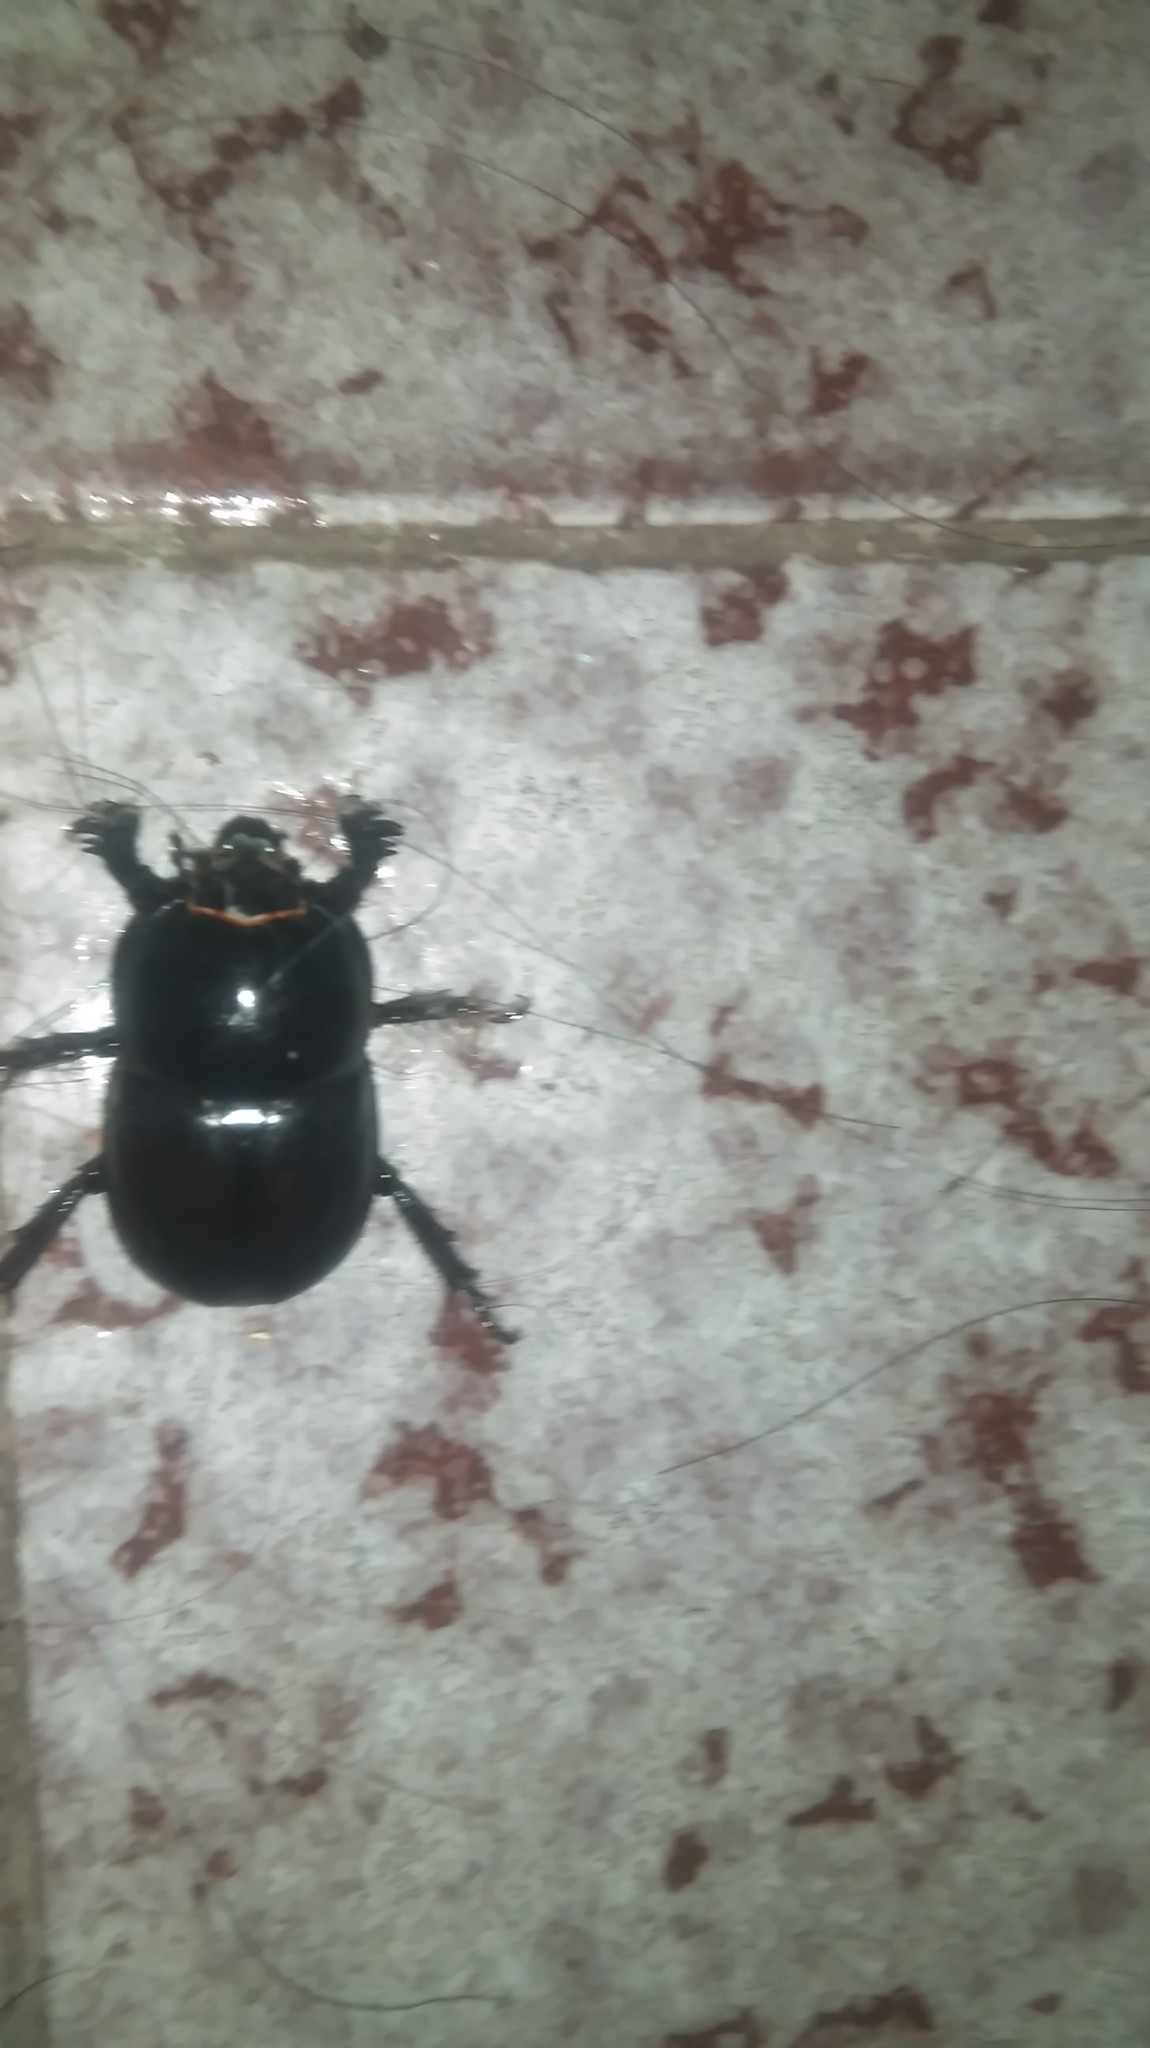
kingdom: Animalia
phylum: Arthropoda
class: Insecta
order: Coleoptera
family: Scarabaeidae
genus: Diloboderus
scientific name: Diloboderus abderus
